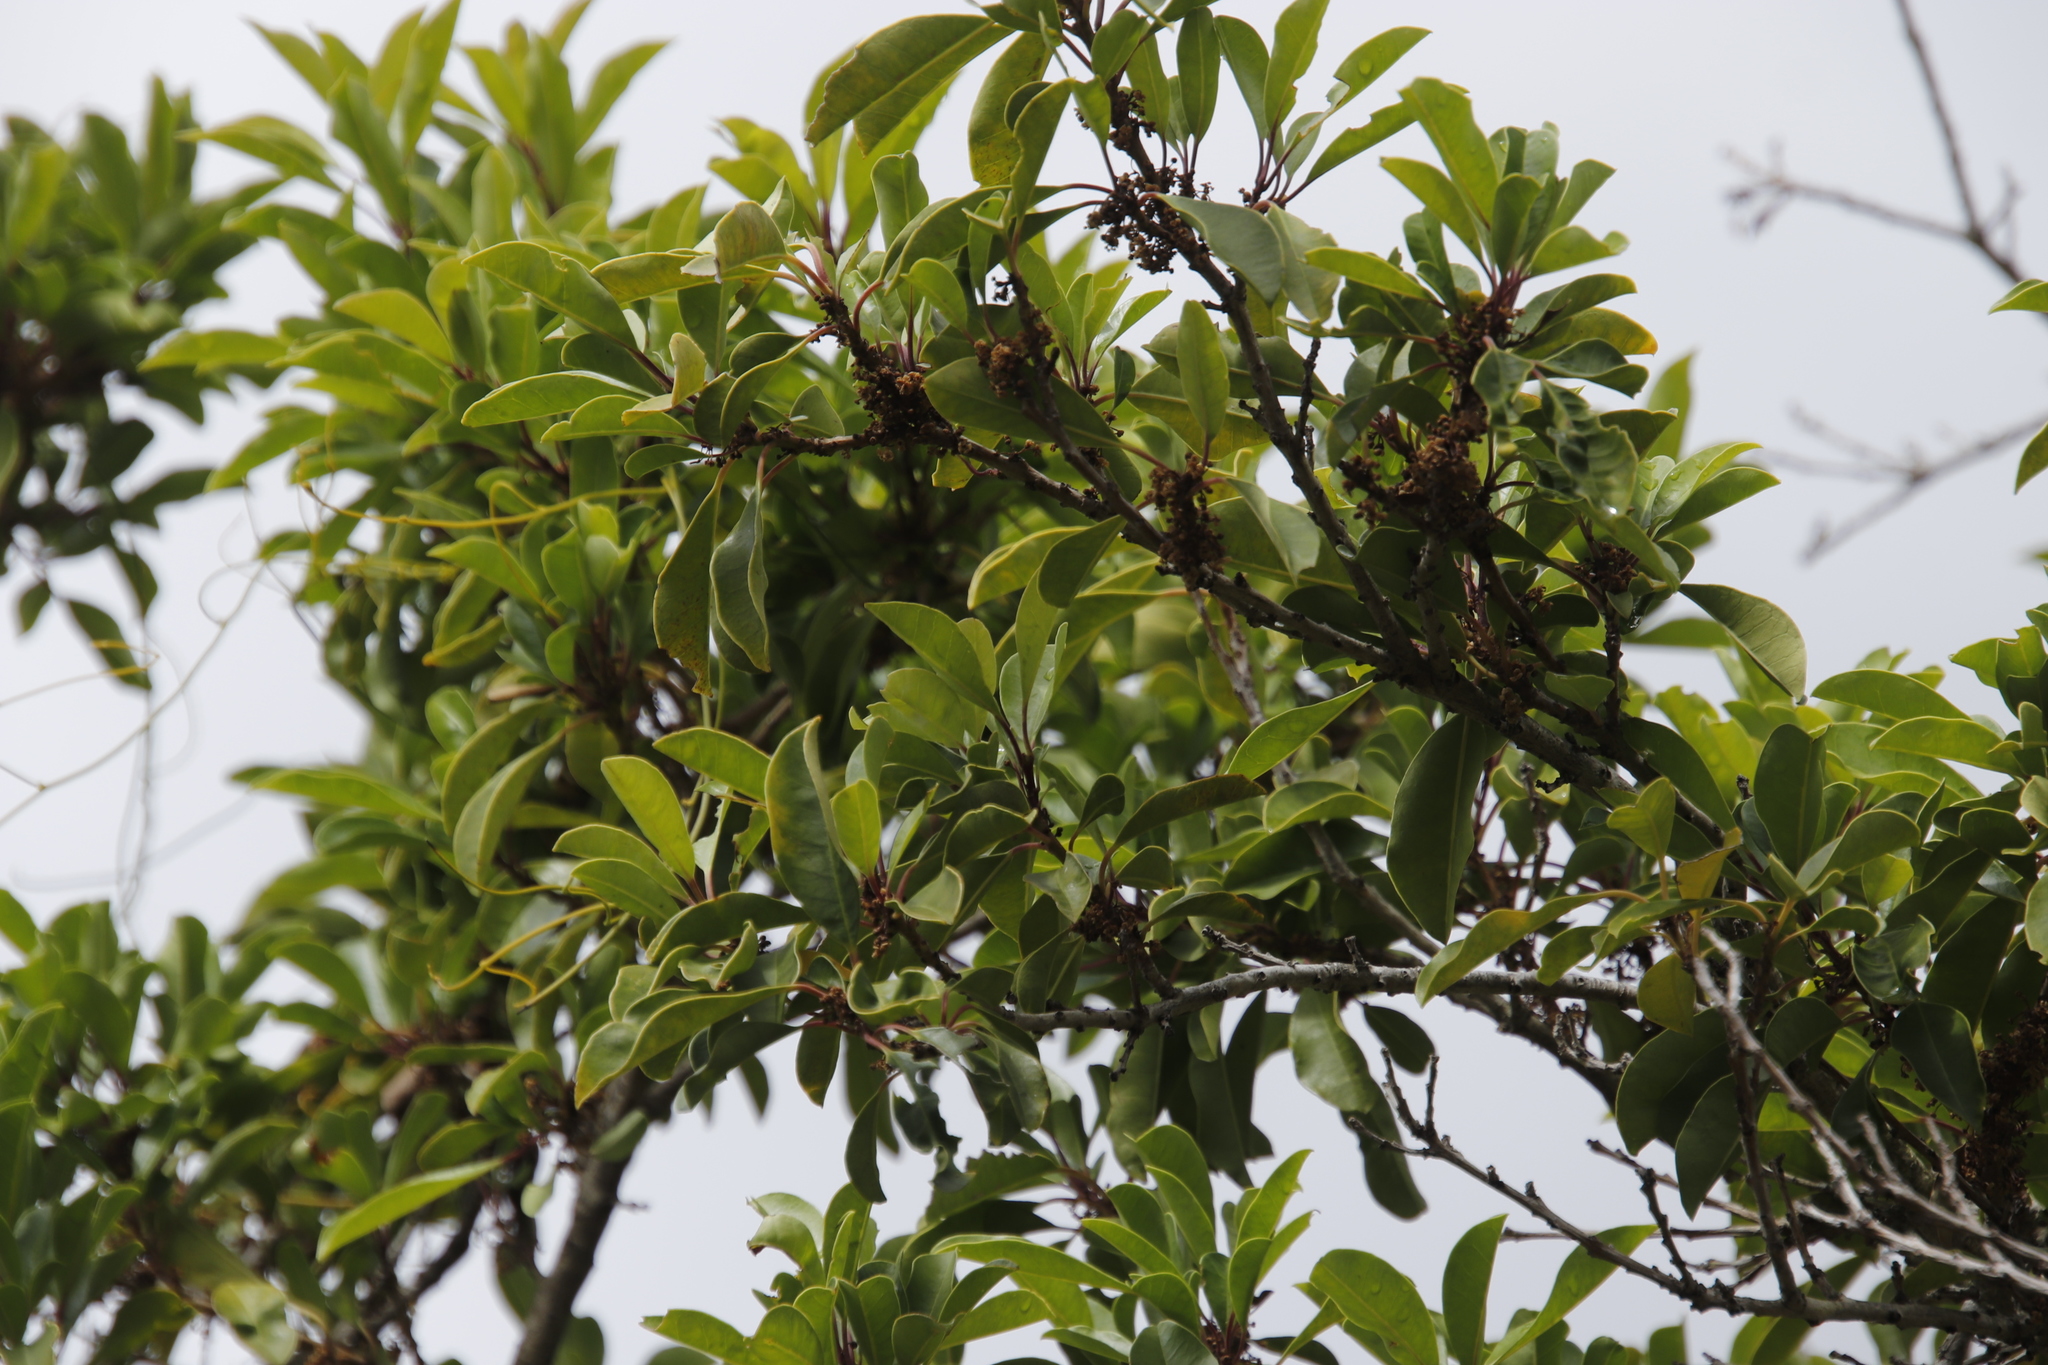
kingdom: Plantae
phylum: Tracheophyta
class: Magnoliopsida
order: Aquifoliales
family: Aquifoliaceae
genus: Ilex
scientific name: Ilex mitis
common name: African holly
